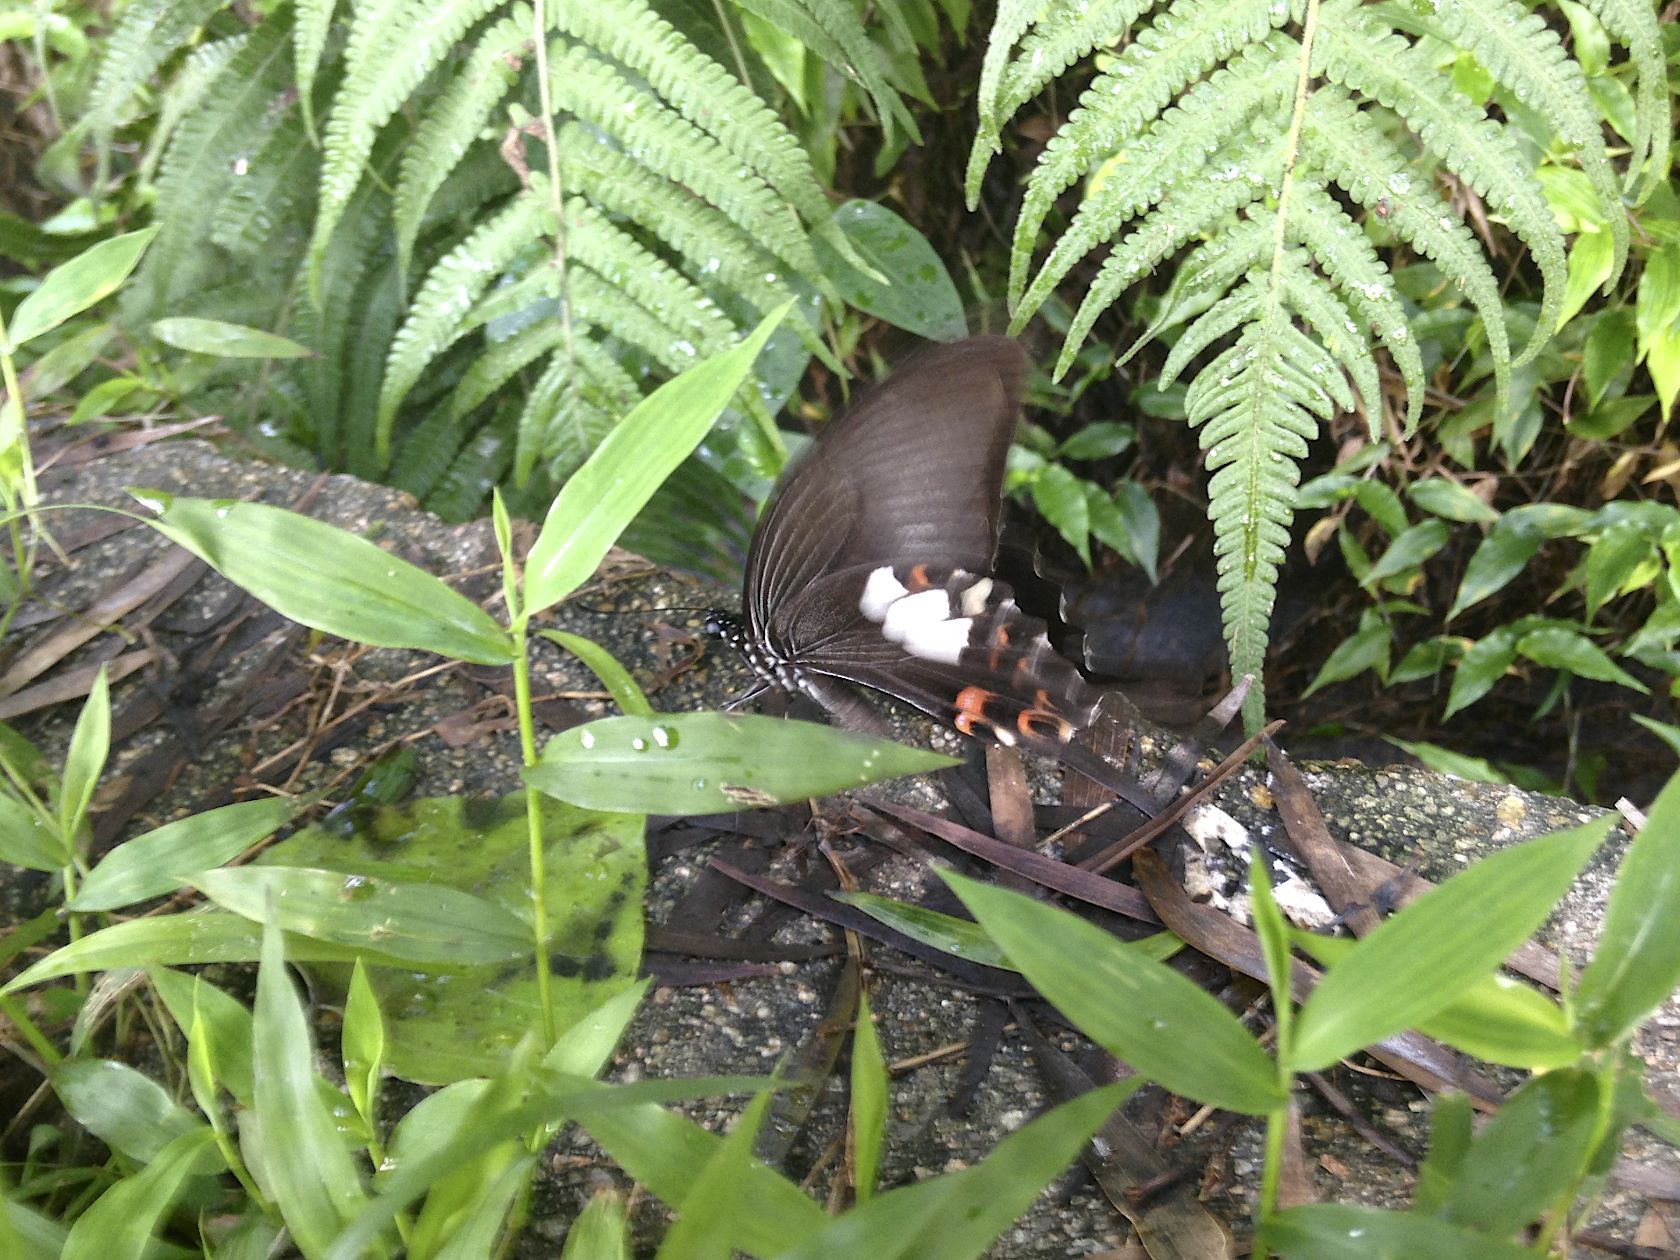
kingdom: Animalia
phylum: Arthropoda
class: Insecta
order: Lepidoptera
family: Papilionidae
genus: Papilio
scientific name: Papilio helenus
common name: Red helen
